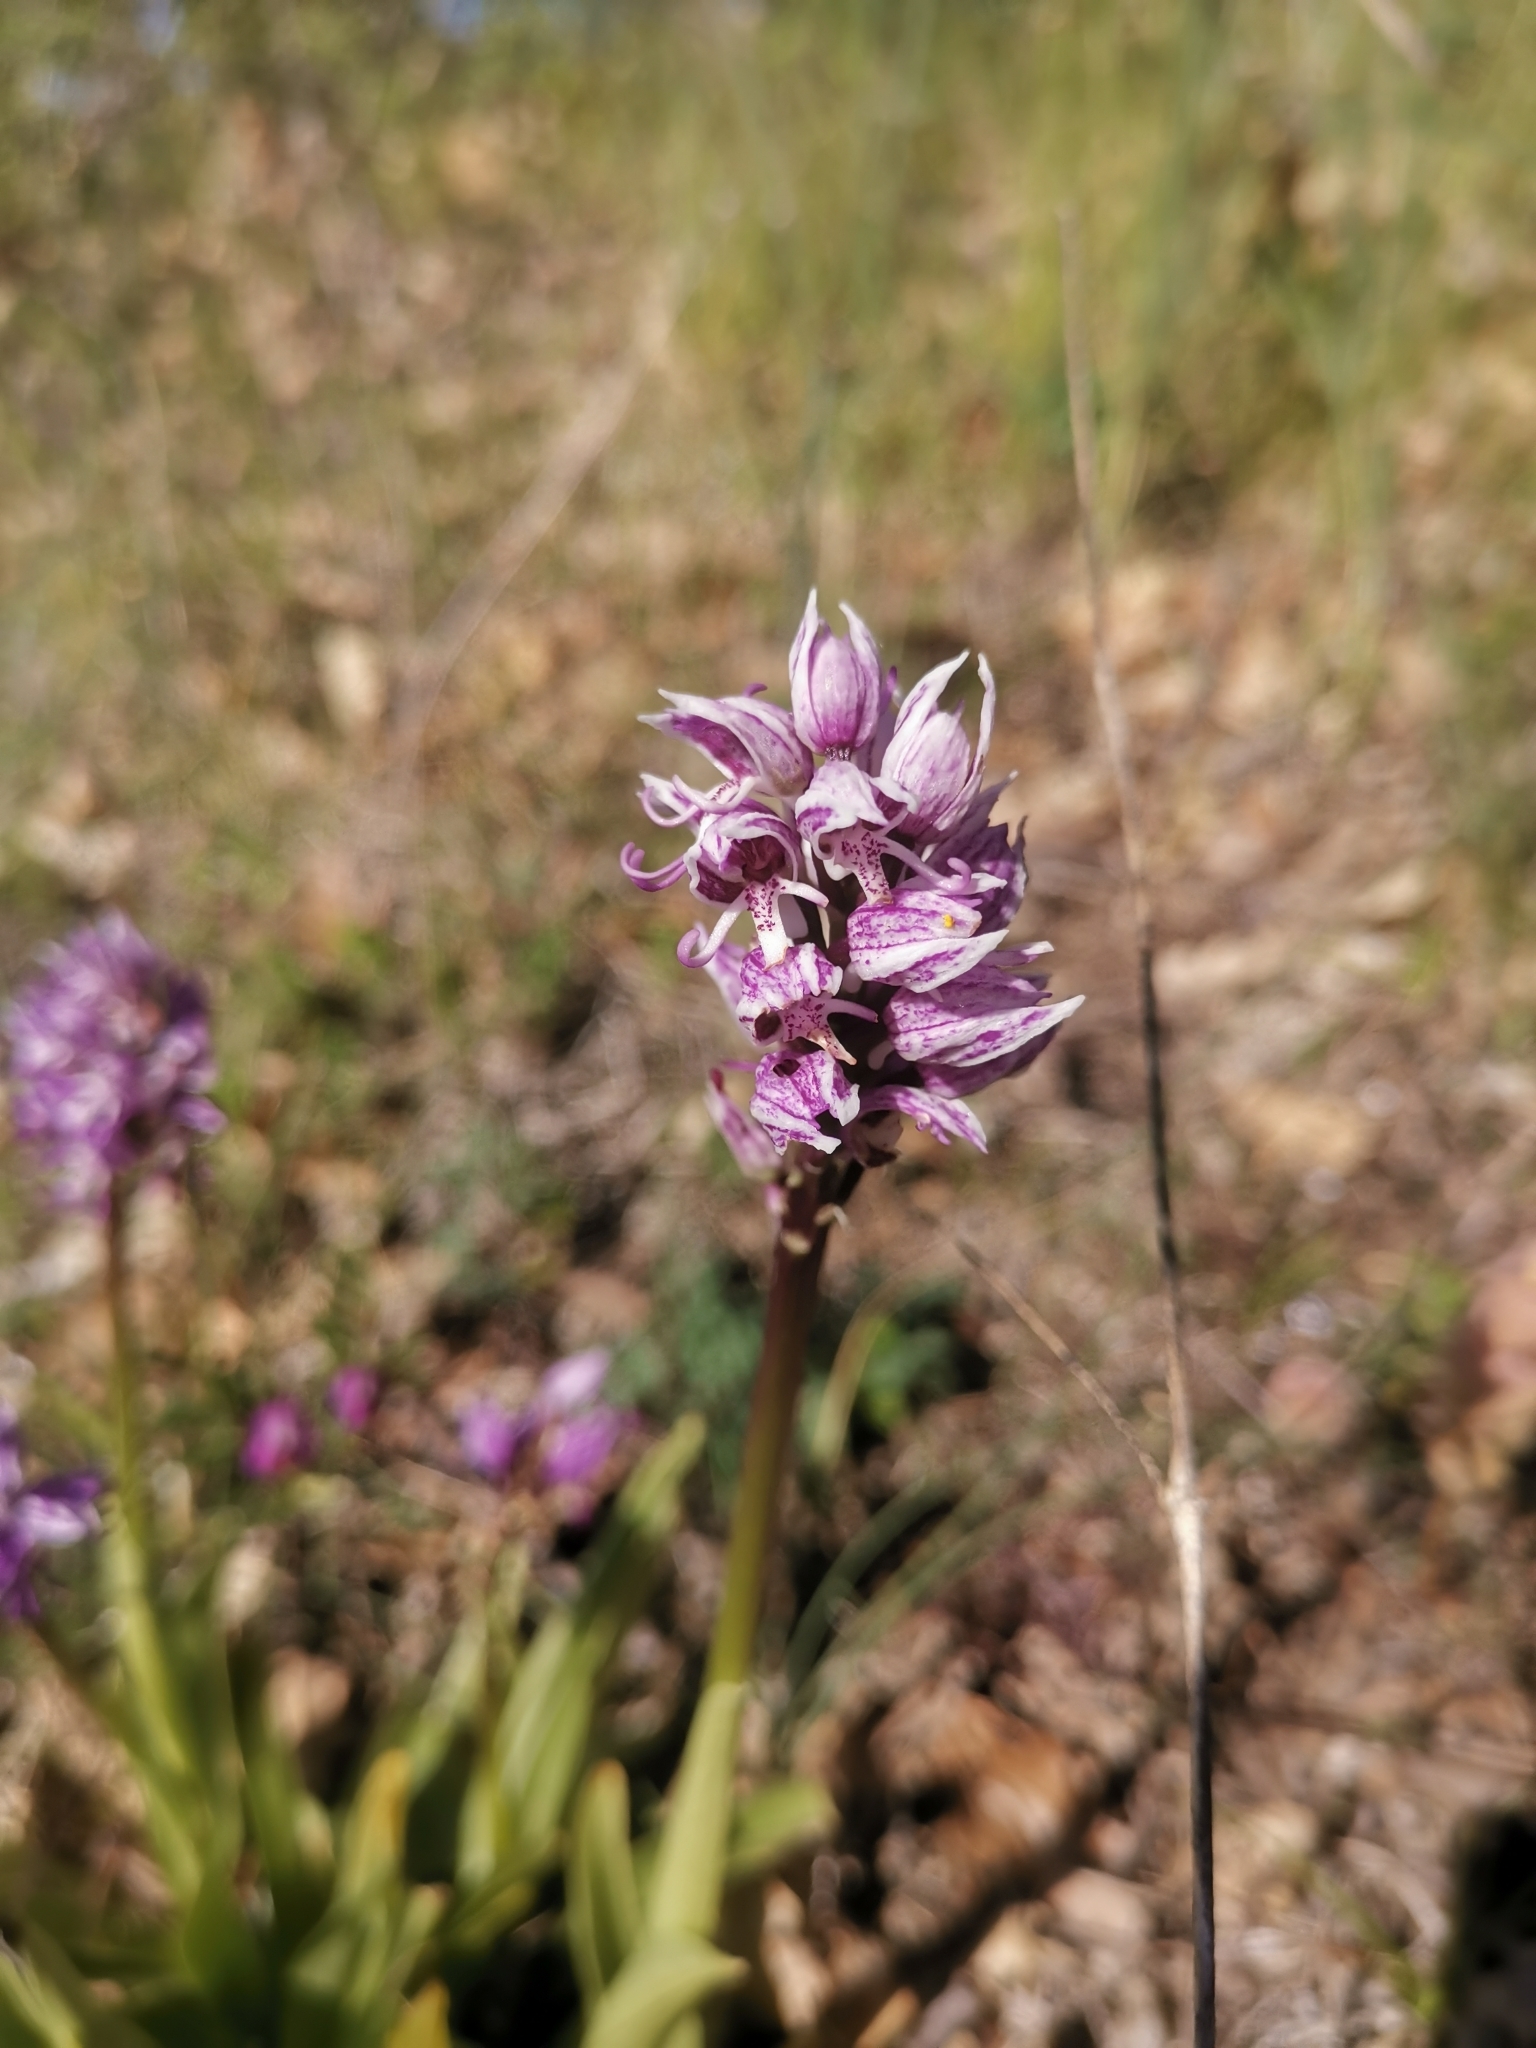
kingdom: Plantae
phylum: Tracheophyta
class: Liliopsida
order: Asparagales
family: Orchidaceae
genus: Orchis
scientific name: Orchis simia
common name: Monkey orchid
